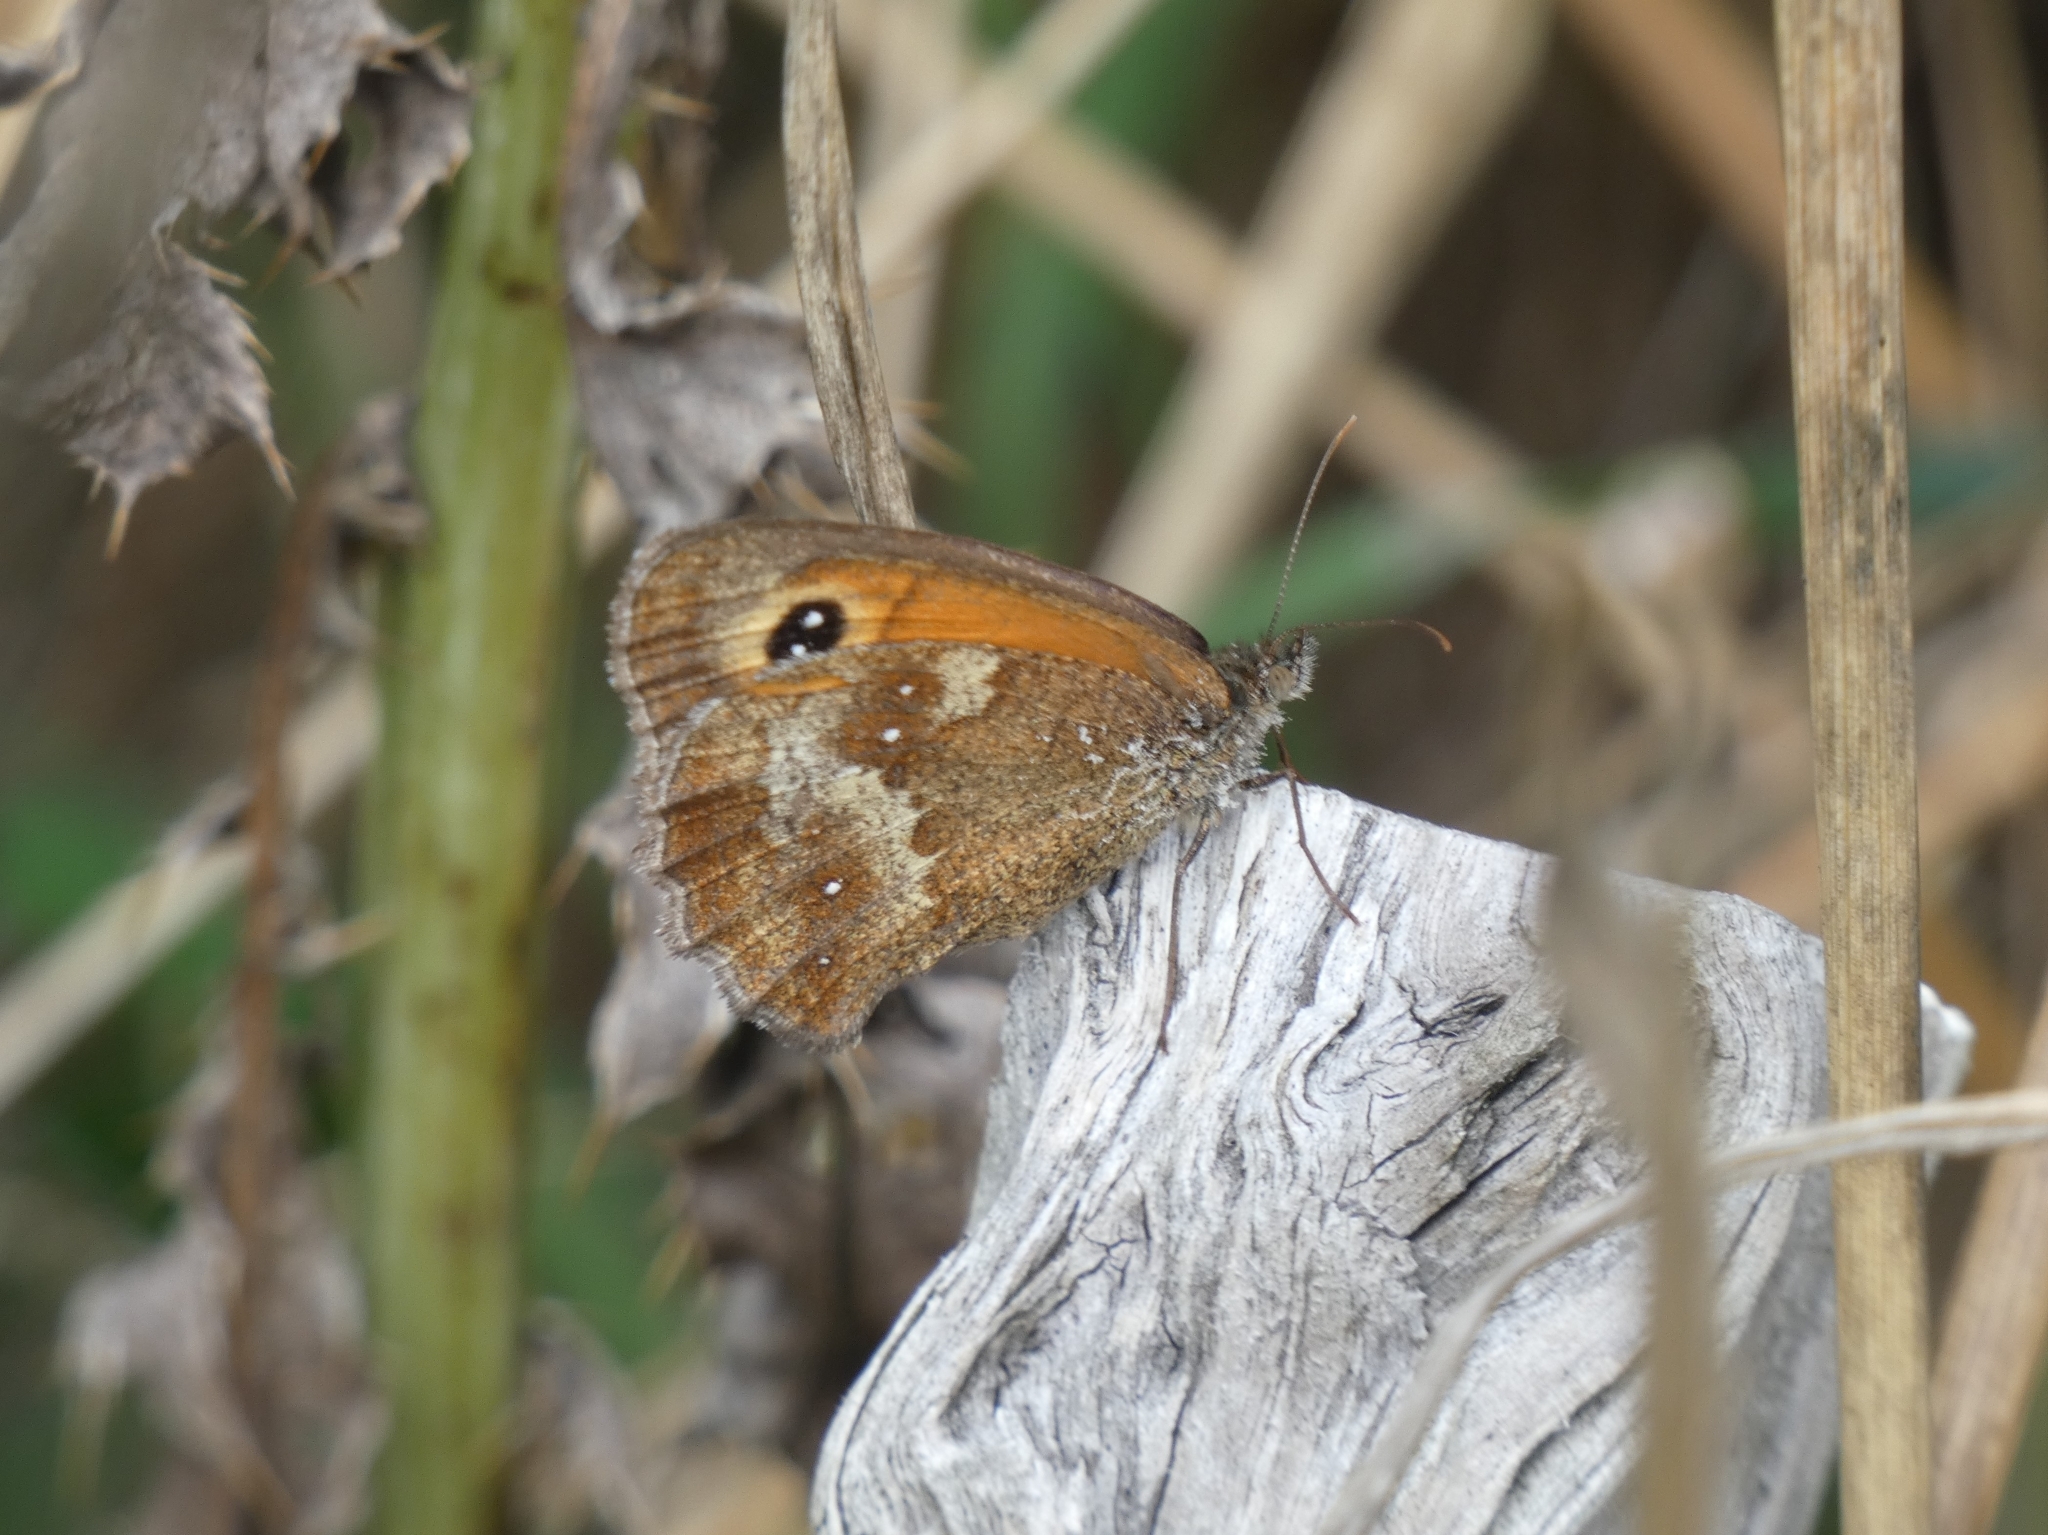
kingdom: Animalia
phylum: Arthropoda
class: Insecta
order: Lepidoptera
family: Nymphalidae
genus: Pyronia
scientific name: Pyronia tithonus
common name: Gatekeeper
